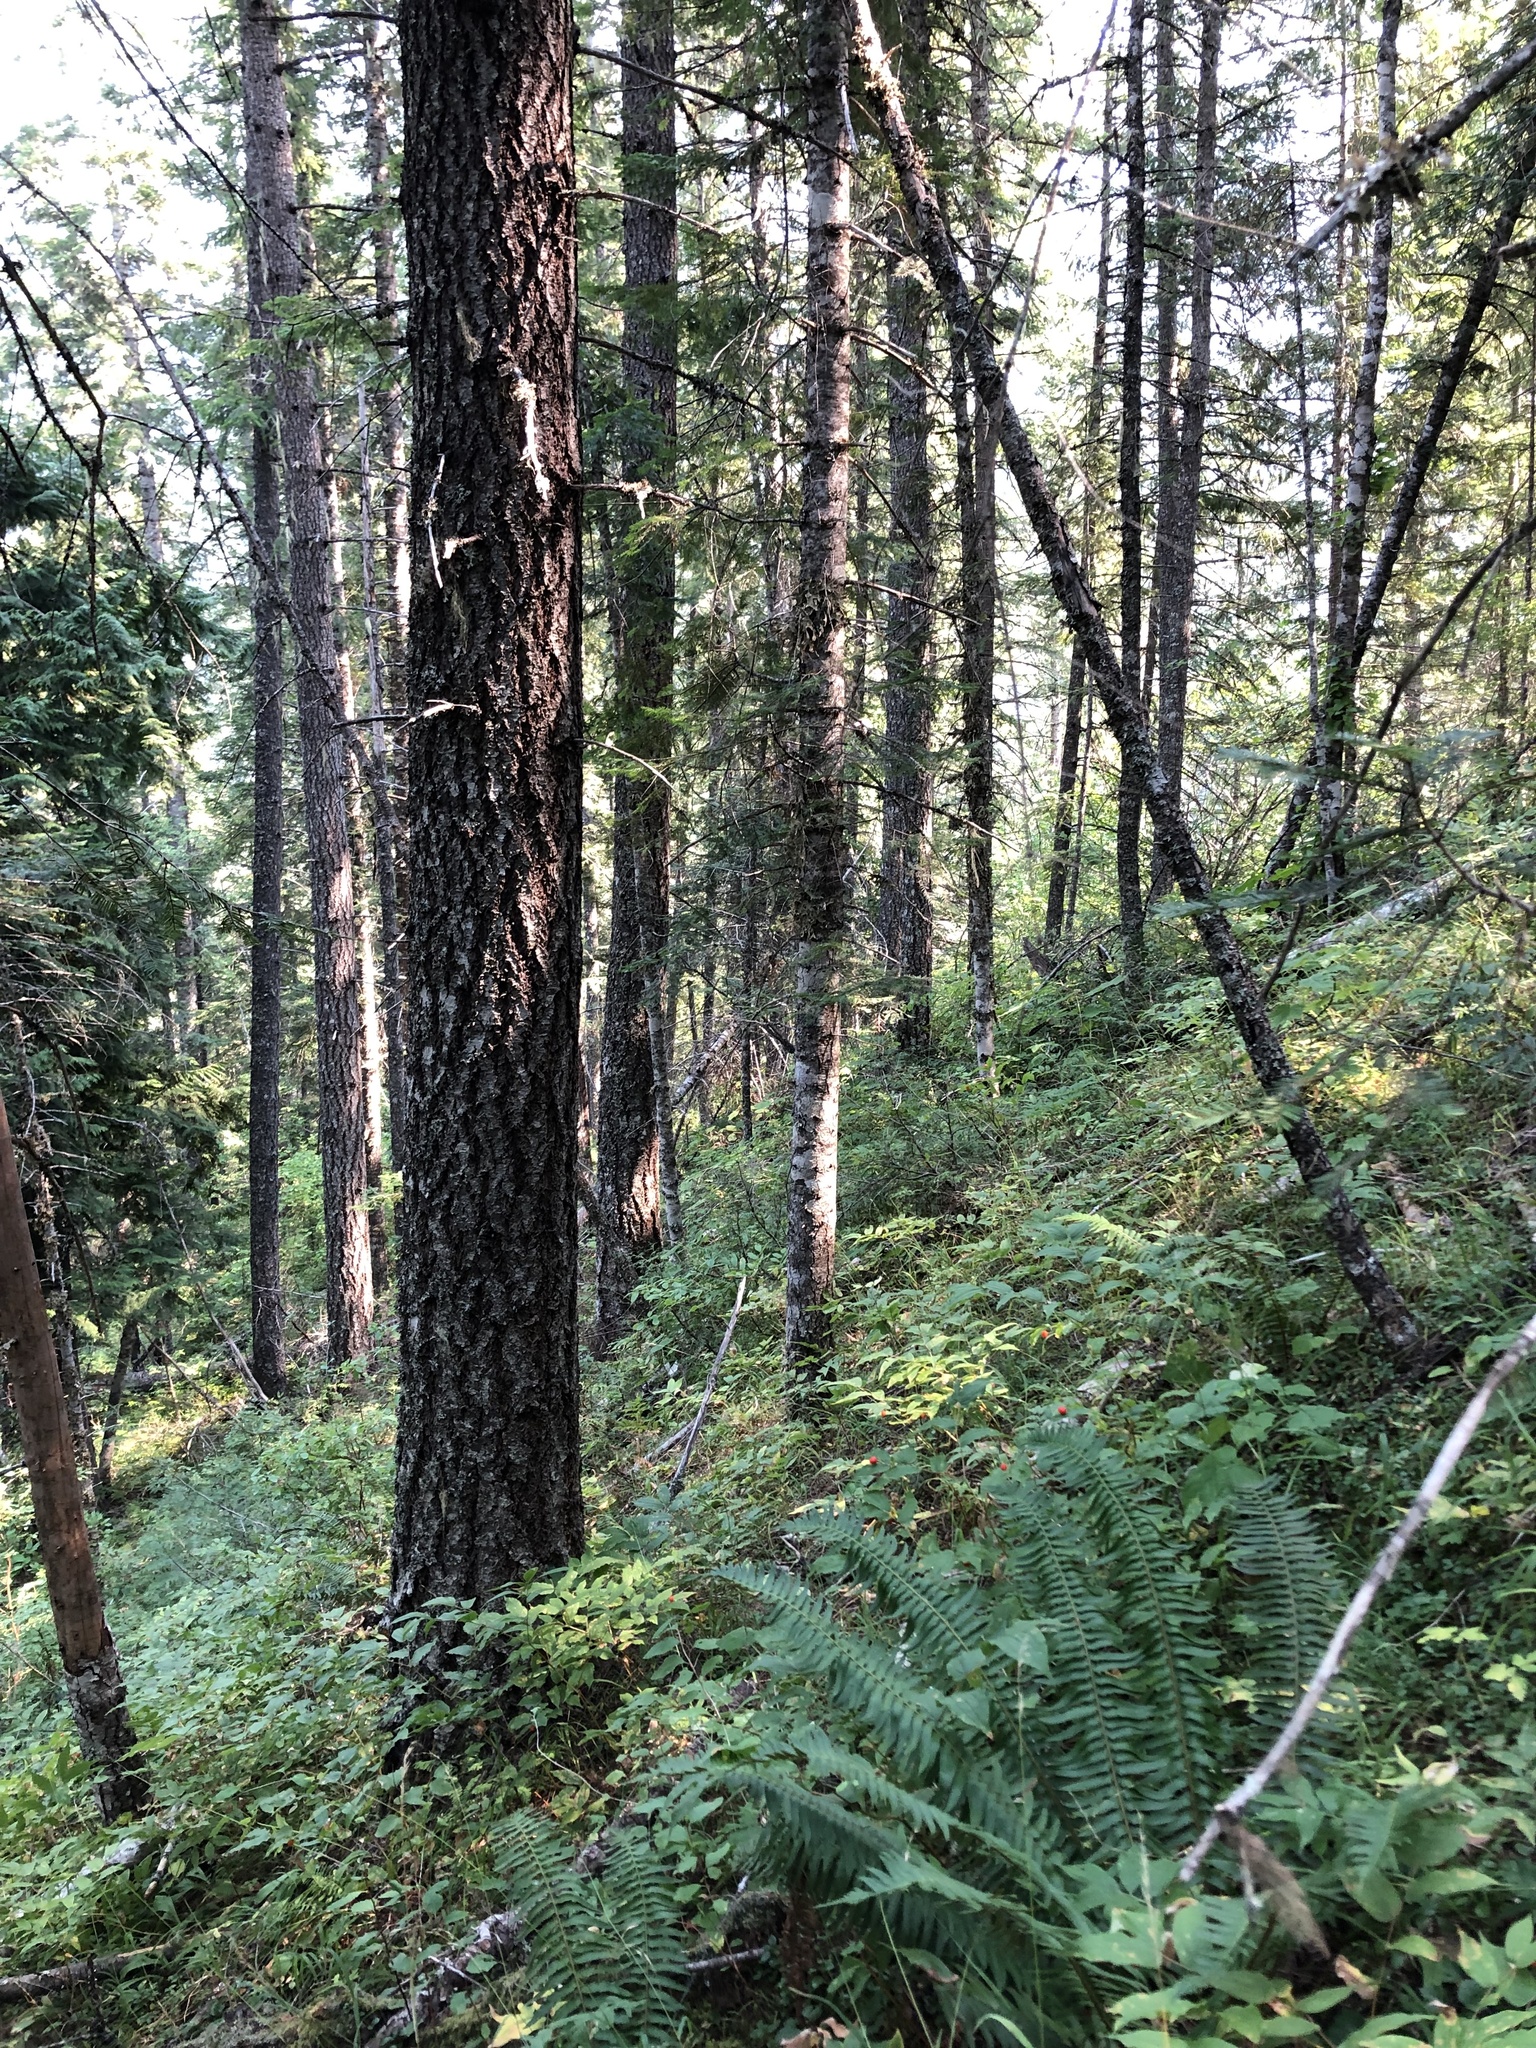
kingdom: Plantae
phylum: Tracheophyta
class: Magnoliopsida
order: Dipsacales
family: Caprifoliaceae
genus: Linnaea
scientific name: Linnaea borealis
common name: Twinflower
